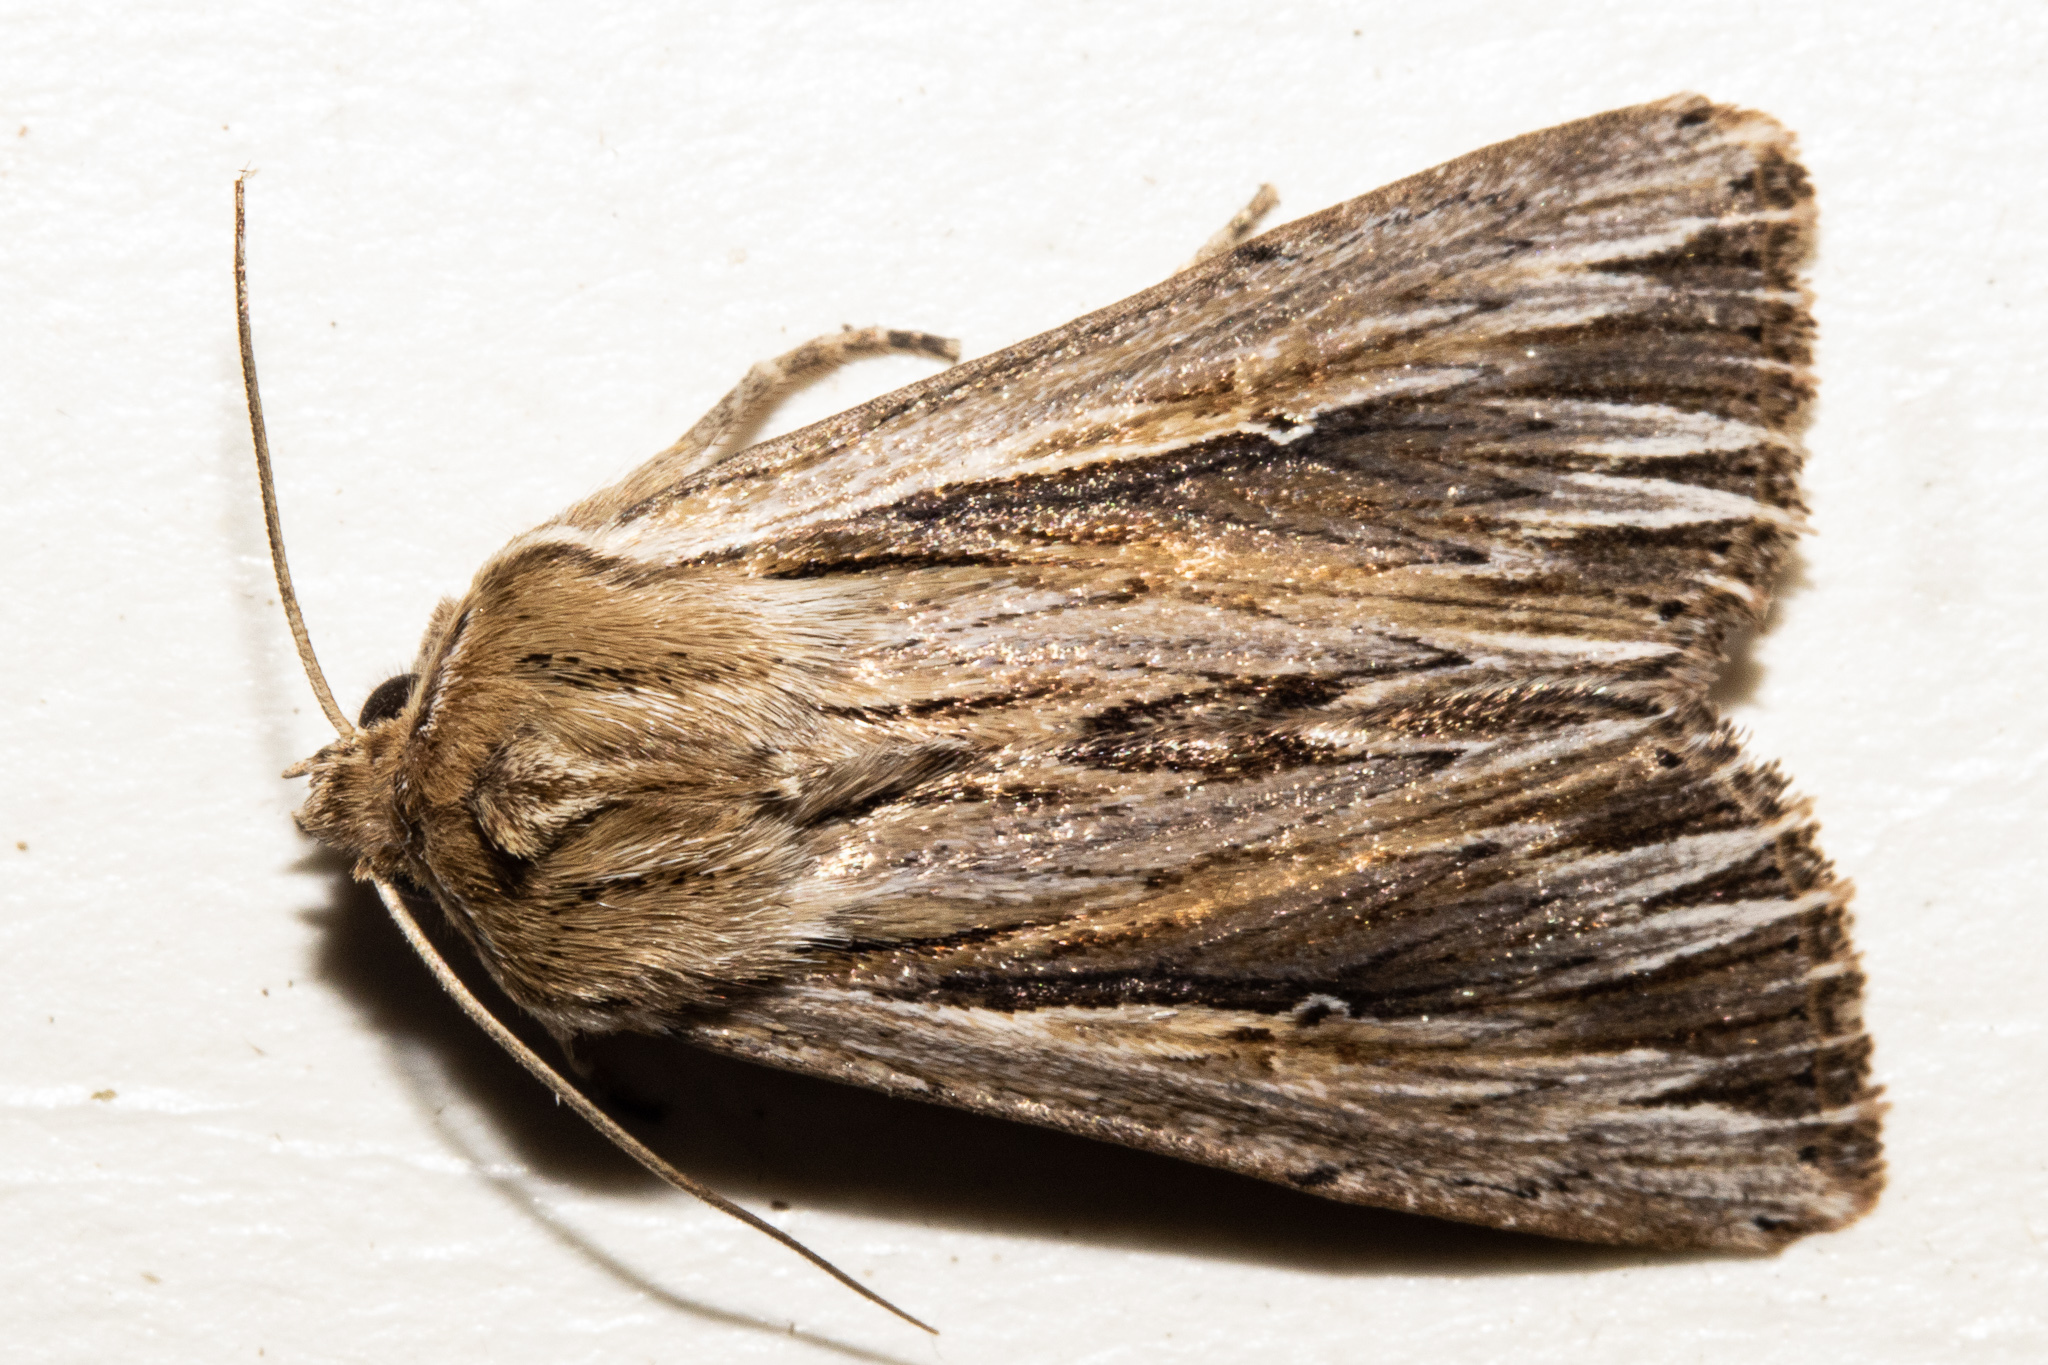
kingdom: Animalia
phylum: Arthropoda
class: Insecta
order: Lepidoptera
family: Noctuidae
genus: Persectania
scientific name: Persectania aversa
